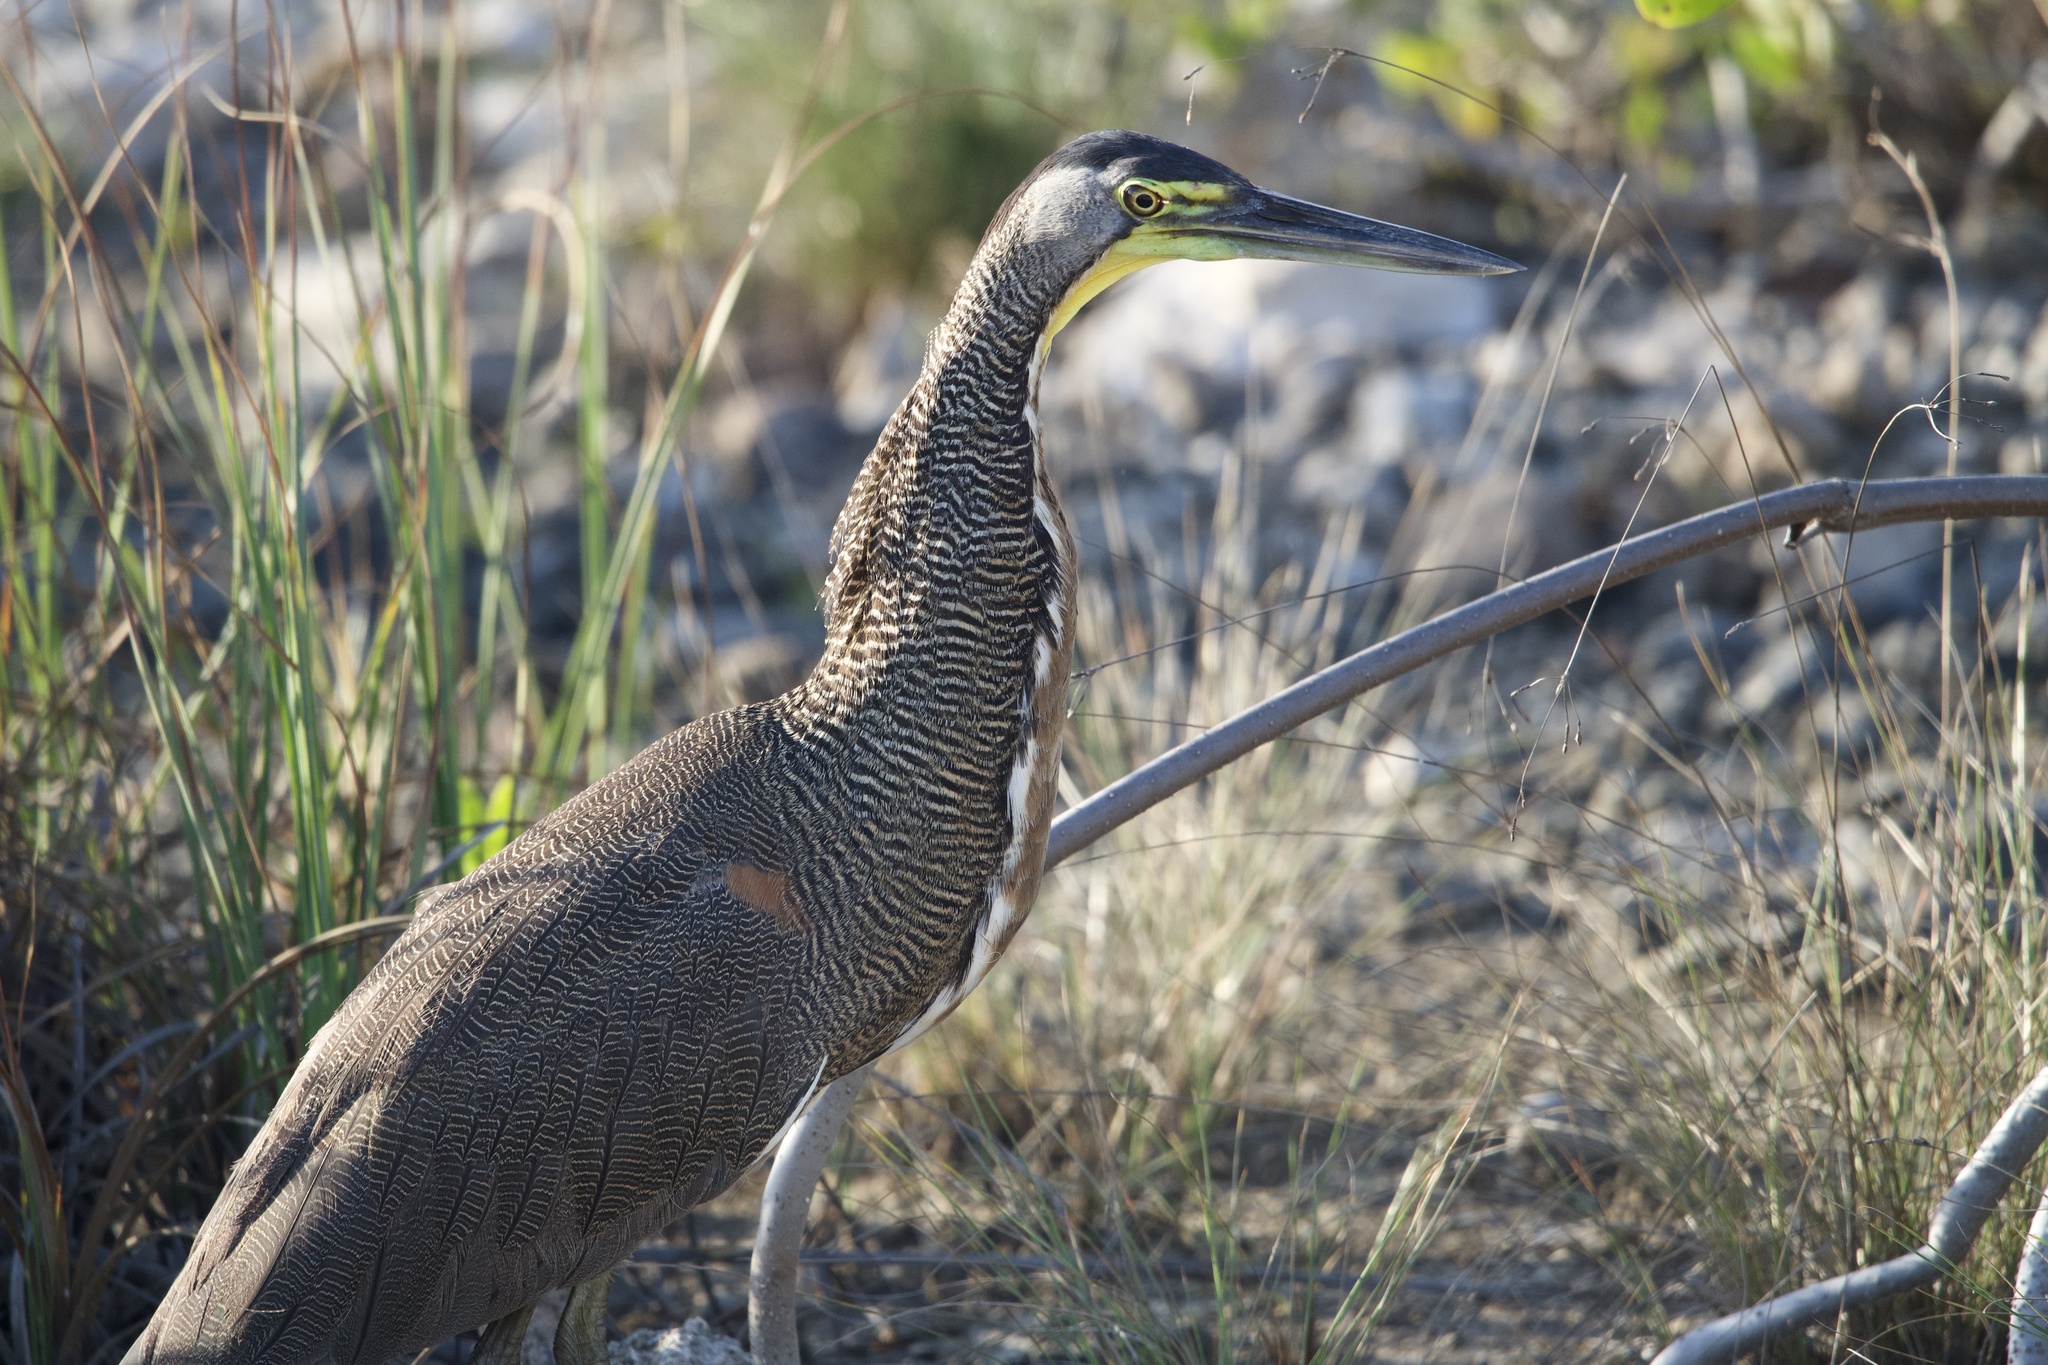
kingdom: Animalia
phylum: Chordata
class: Aves
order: Pelecaniformes
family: Ardeidae
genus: Tigrisoma
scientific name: Tigrisoma mexicanum
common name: Bare-throated tiger-heron
